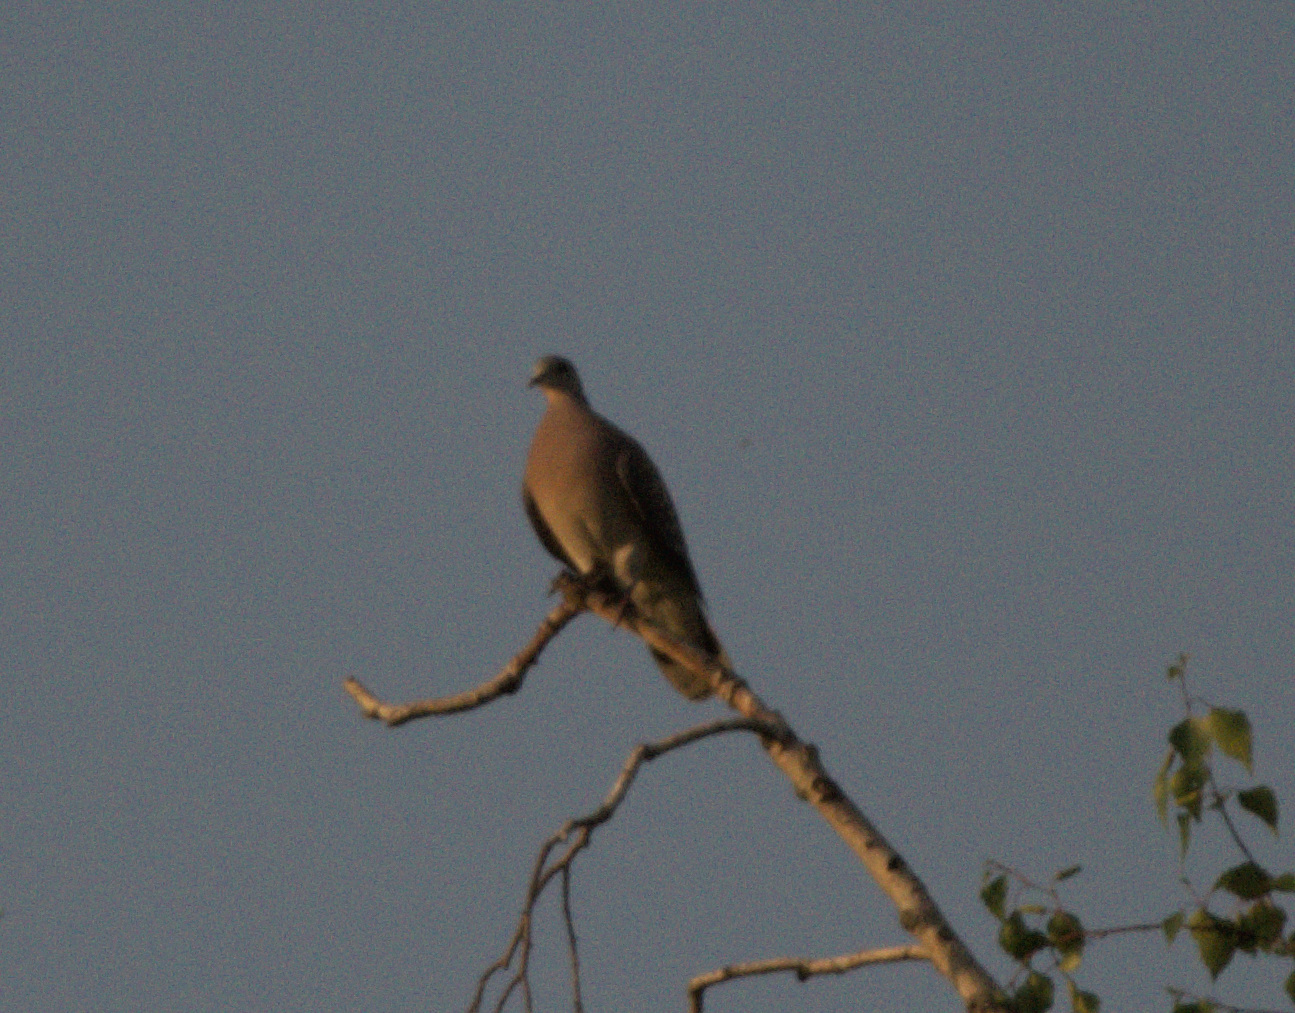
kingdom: Animalia
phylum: Chordata
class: Aves
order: Columbiformes
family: Columbidae
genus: Streptopelia
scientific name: Streptopelia orientalis
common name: Oriental turtle dove
